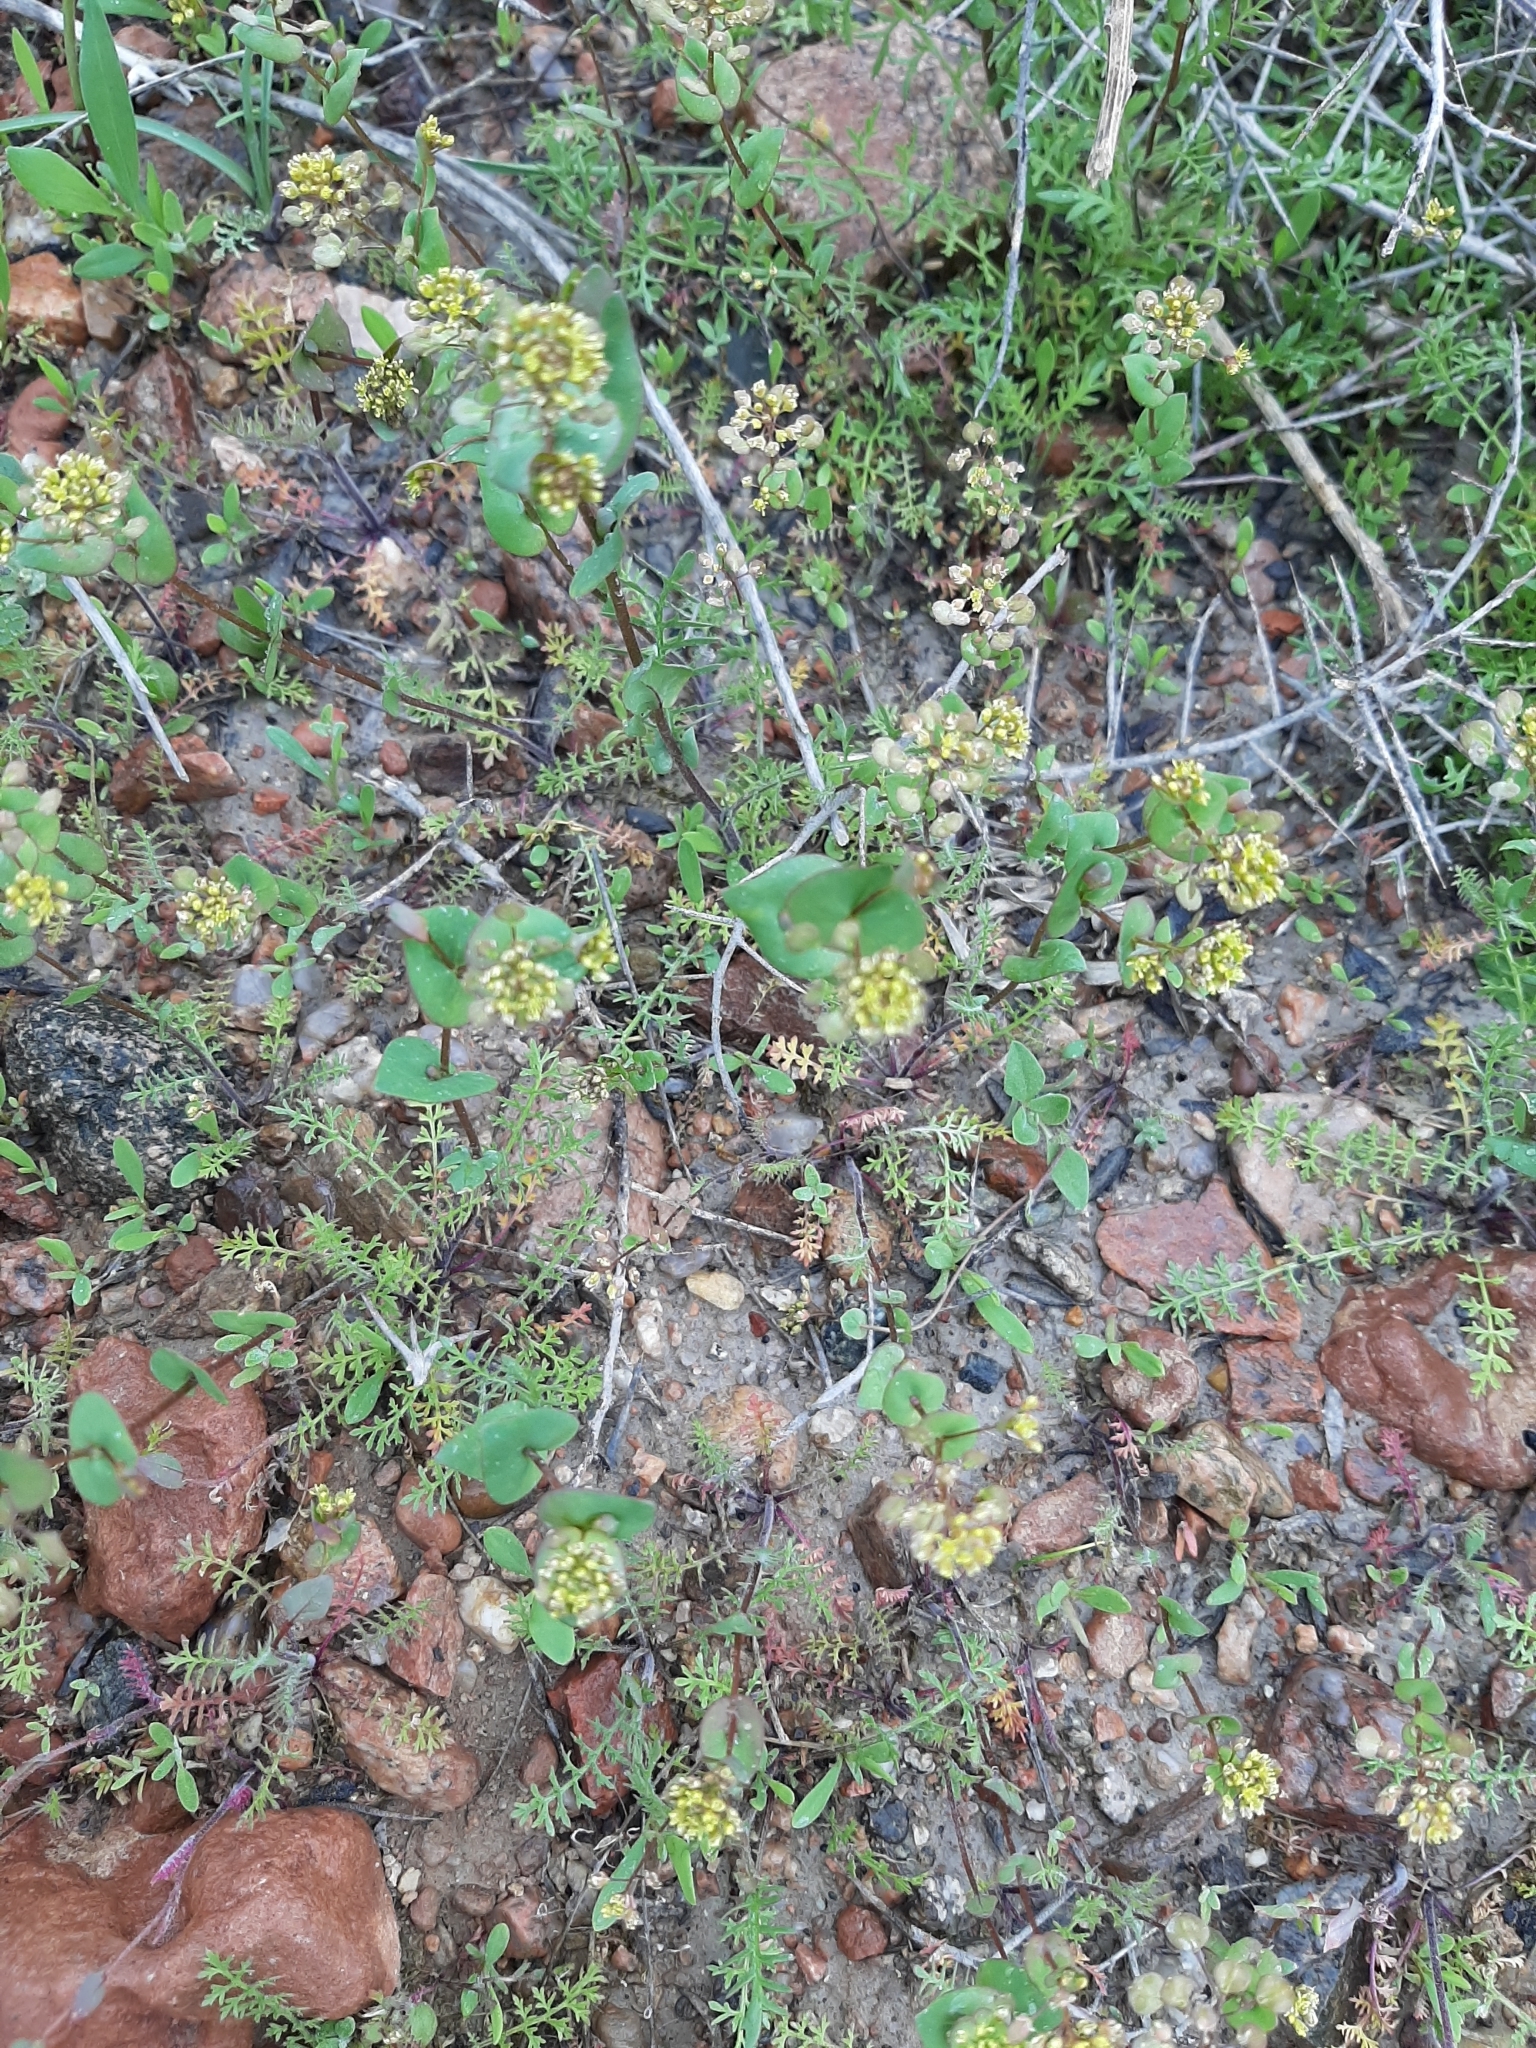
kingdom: Plantae
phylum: Tracheophyta
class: Magnoliopsida
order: Brassicales
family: Brassicaceae
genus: Lepidium
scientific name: Lepidium perfoliatum
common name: Perfoliate pepperwort
